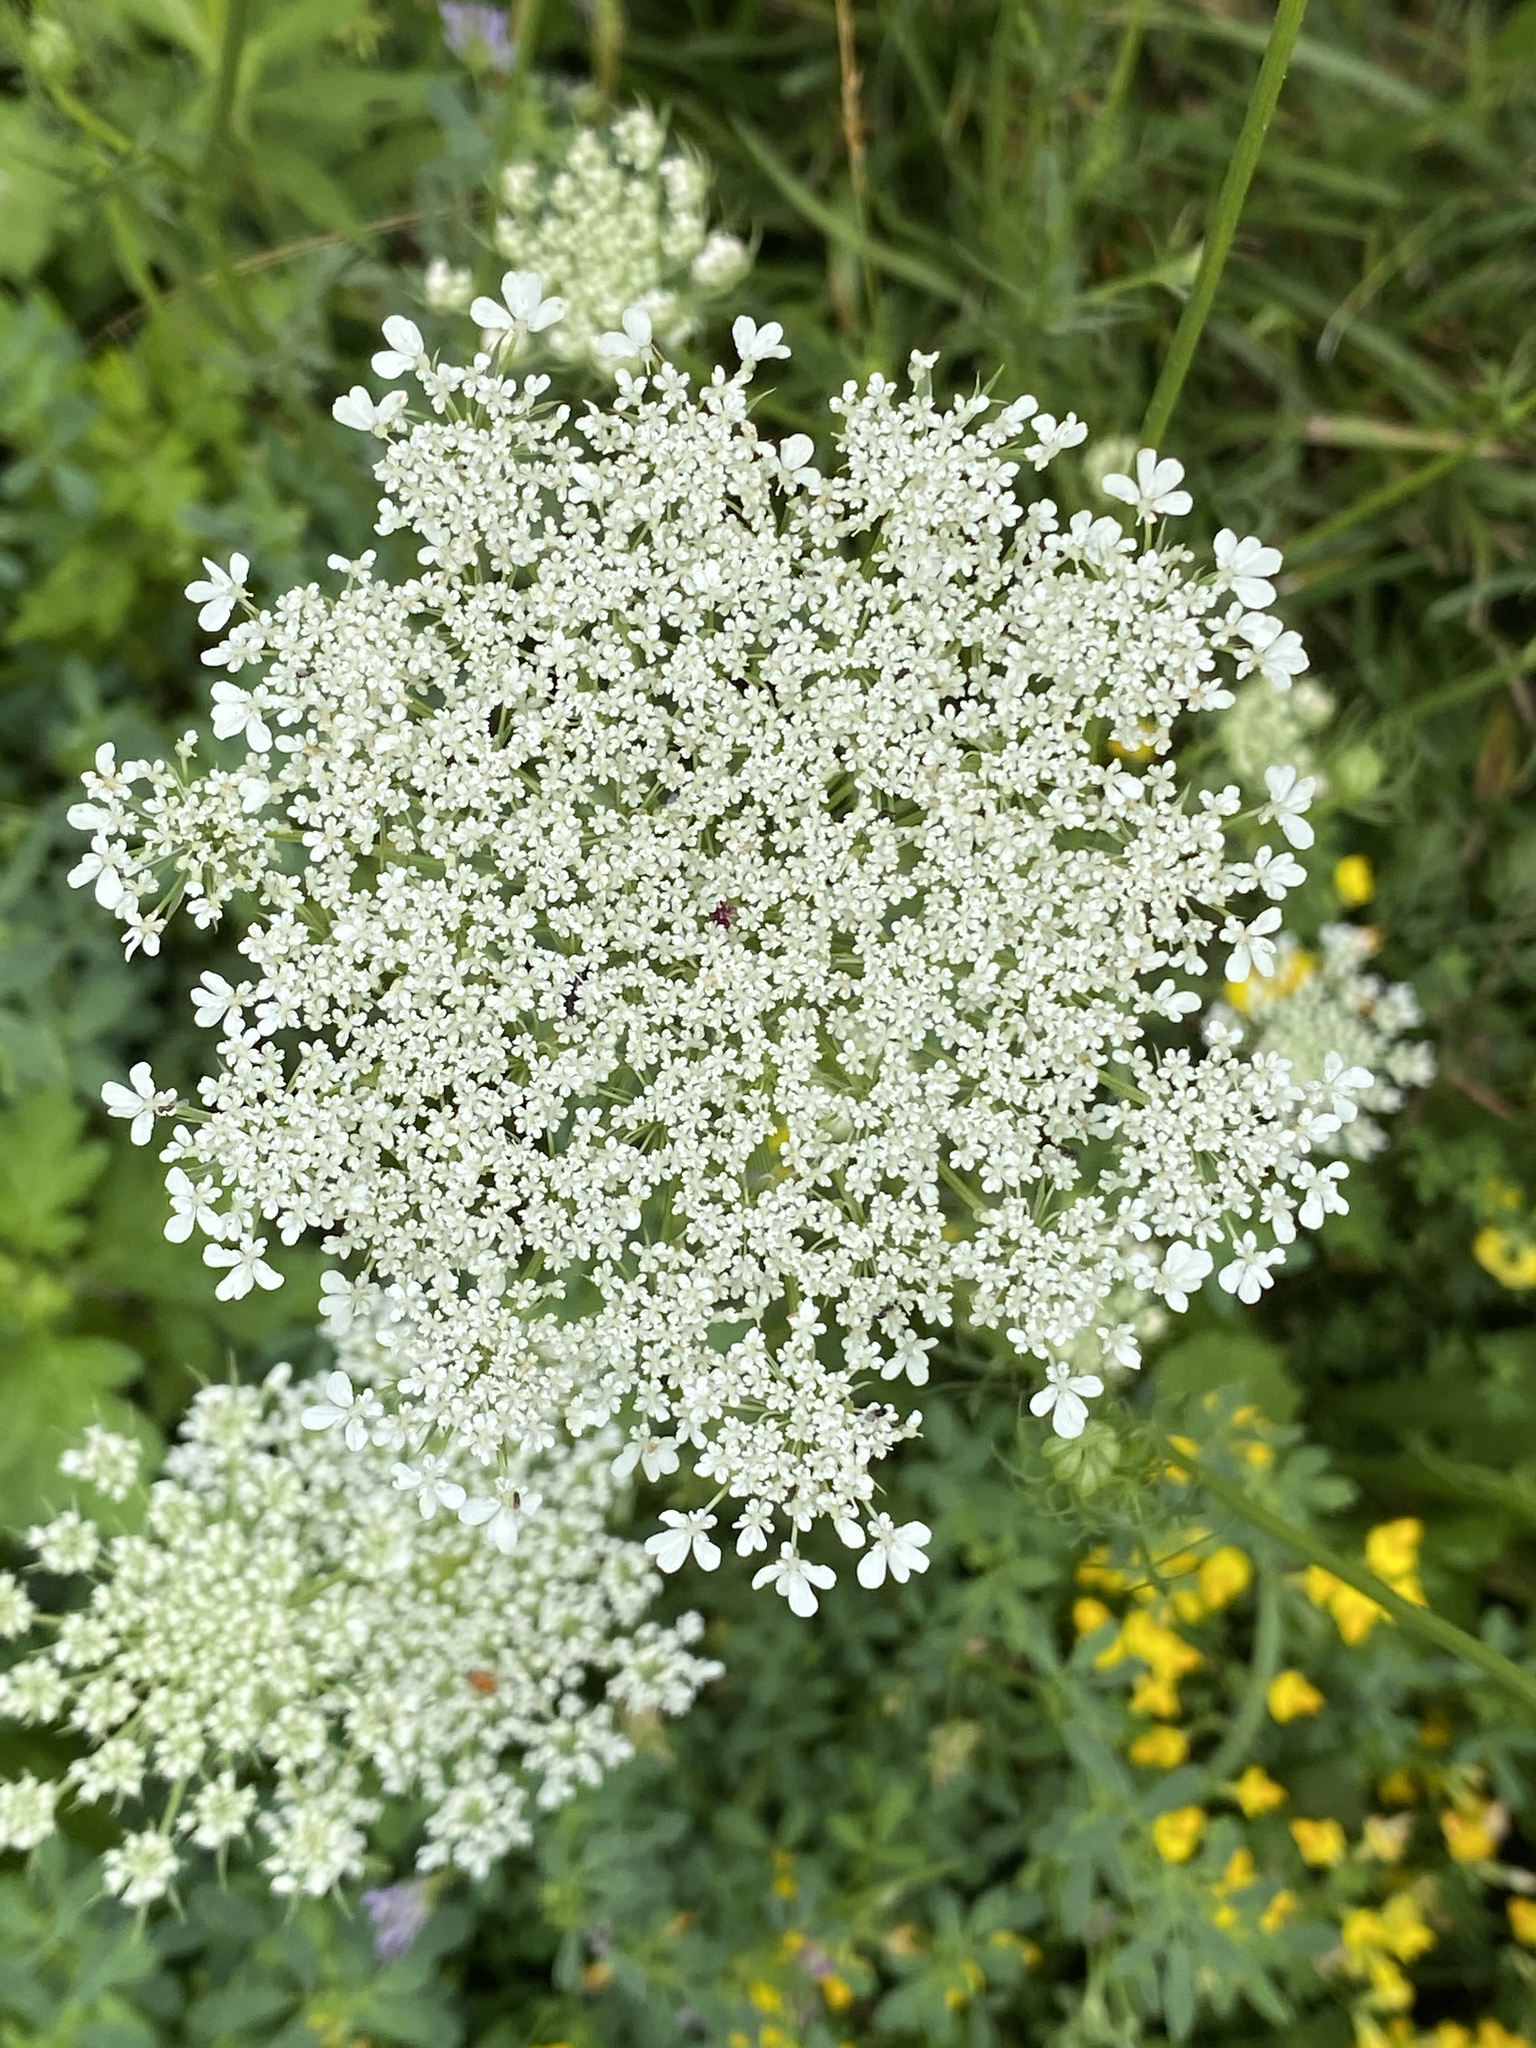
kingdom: Plantae
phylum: Tracheophyta
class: Magnoliopsida
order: Apiales
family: Apiaceae
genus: Daucus
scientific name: Daucus carota
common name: Wild carrot
